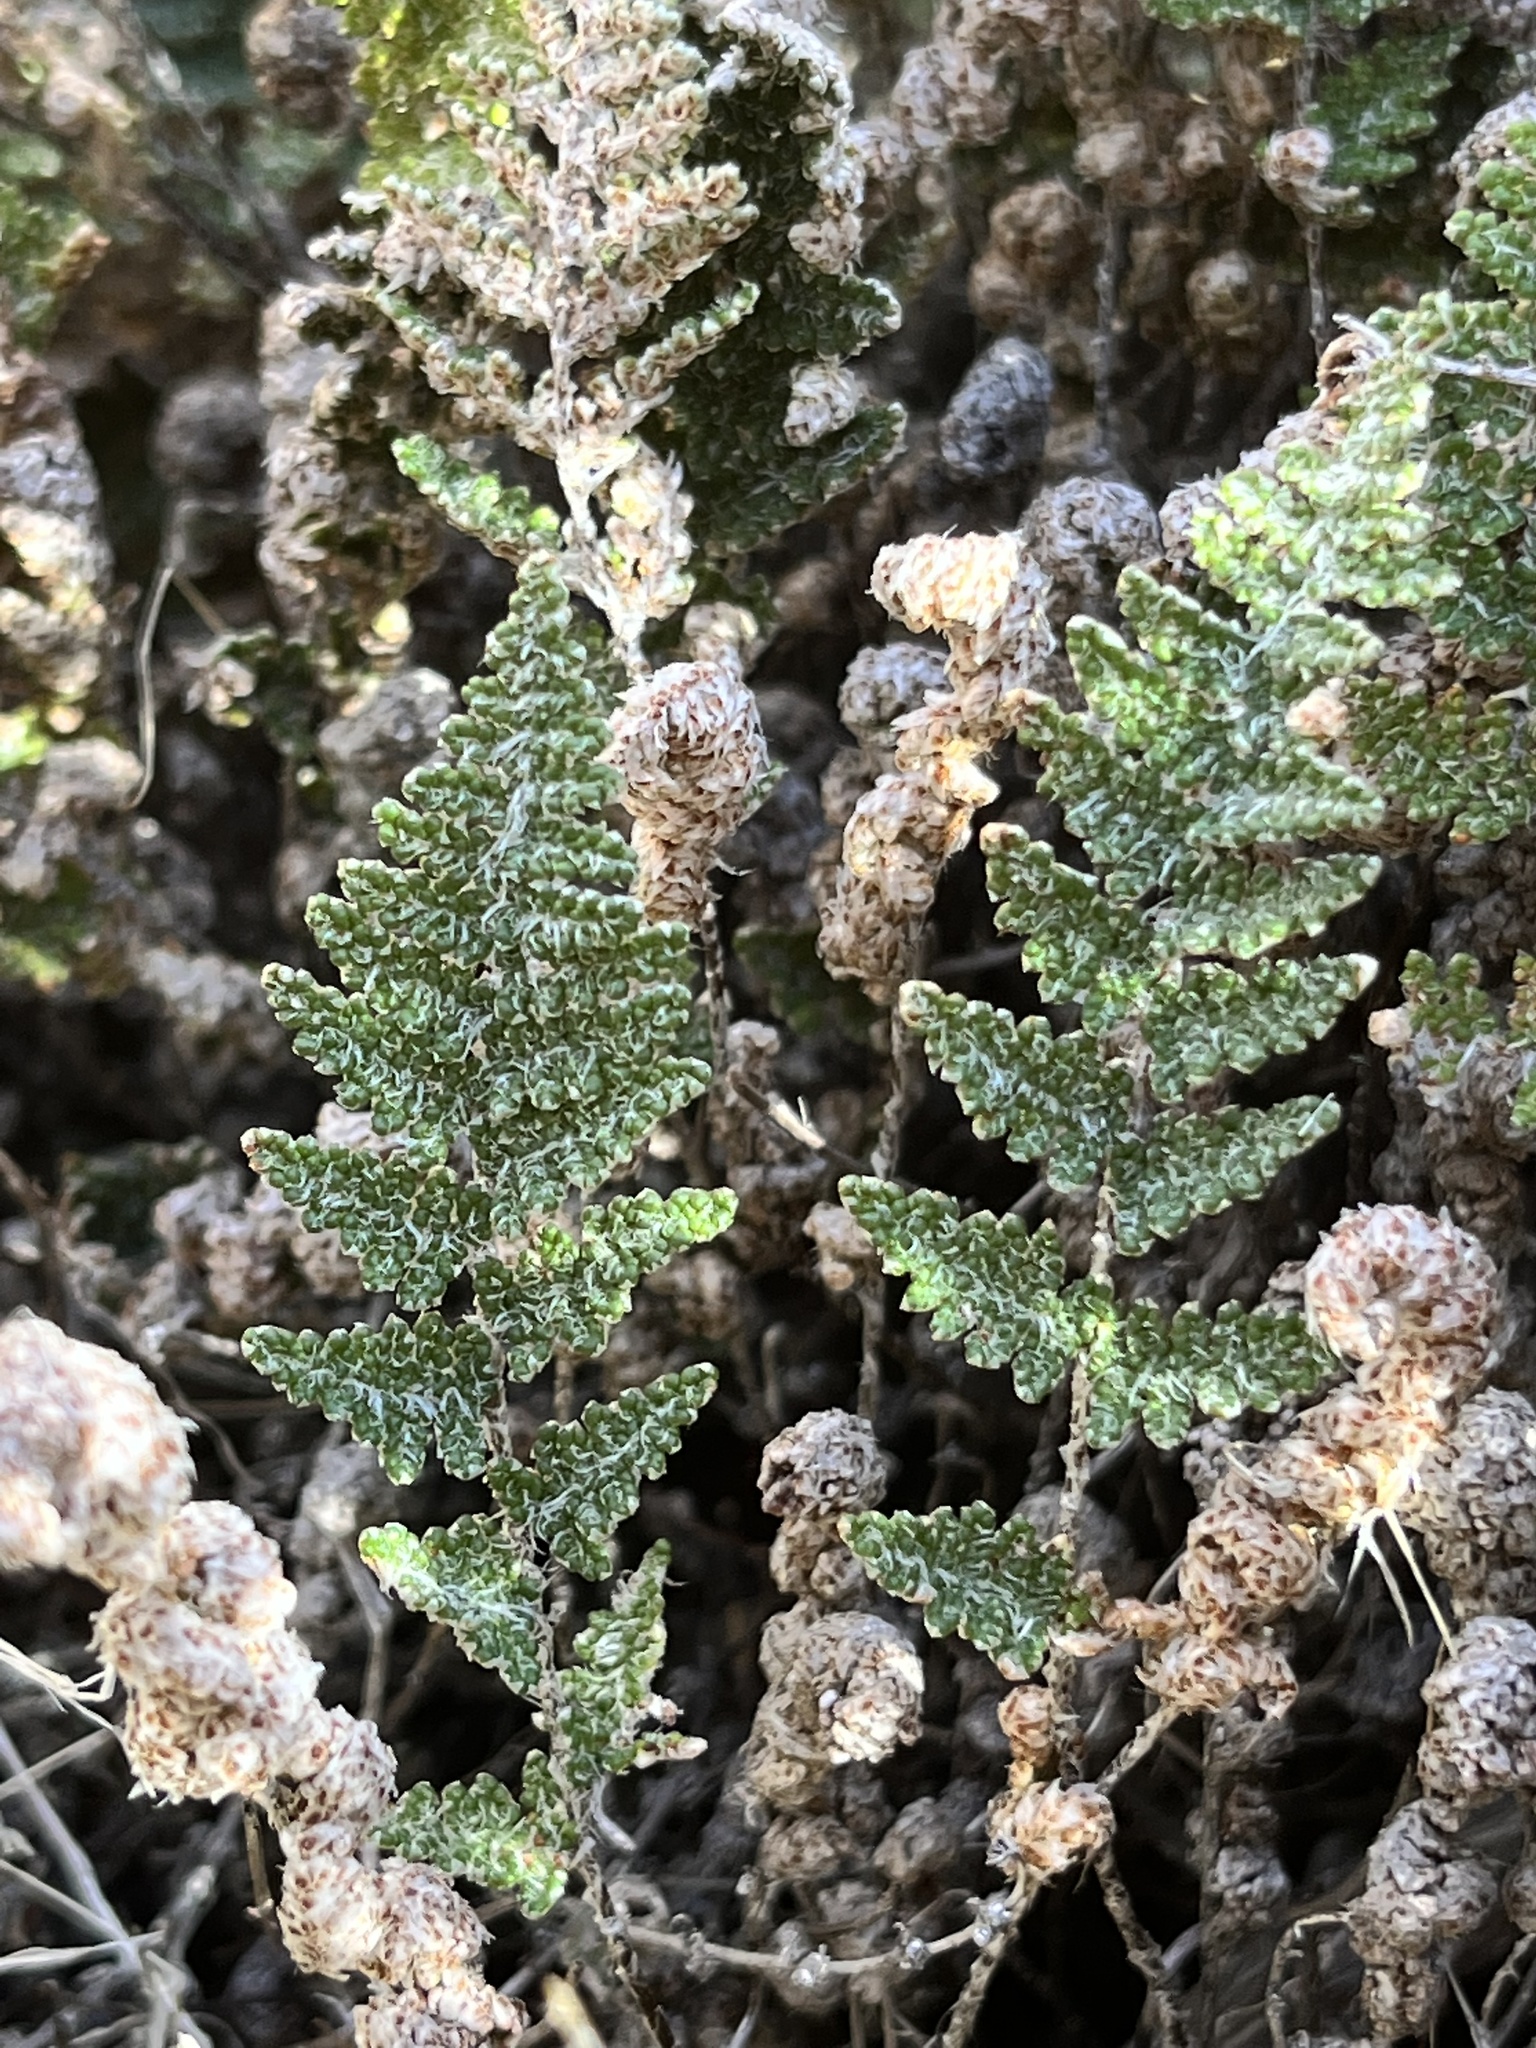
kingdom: Plantae
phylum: Tracheophyta
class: Polypodiopsida
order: Polypodiales
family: Pteridaceae
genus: Myriopteris
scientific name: Myriopteris covillei
